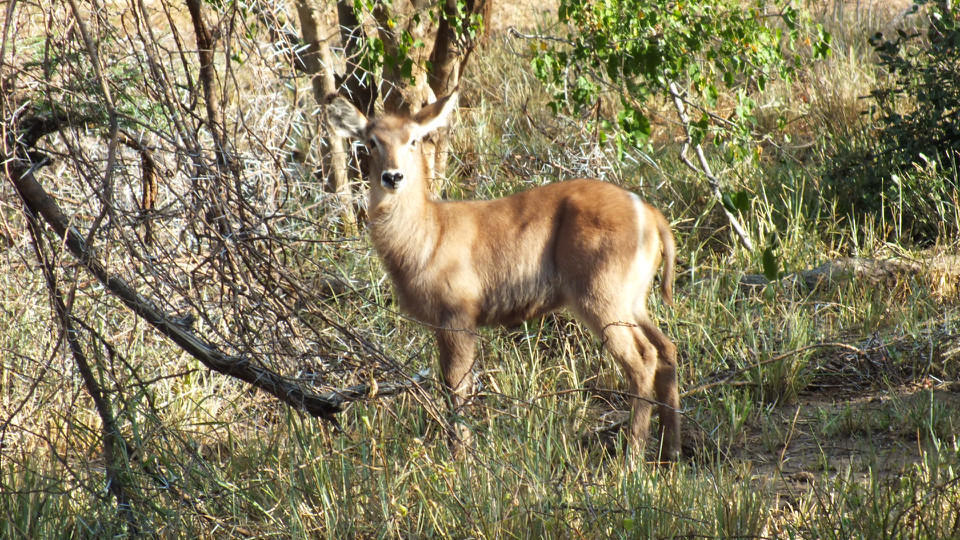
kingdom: Animalia
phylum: Chordata
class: Mammalia
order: Artiodactyla
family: Bovidae
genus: Kobus
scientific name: Kobus ellipsiprymnus
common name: Waterbuck
